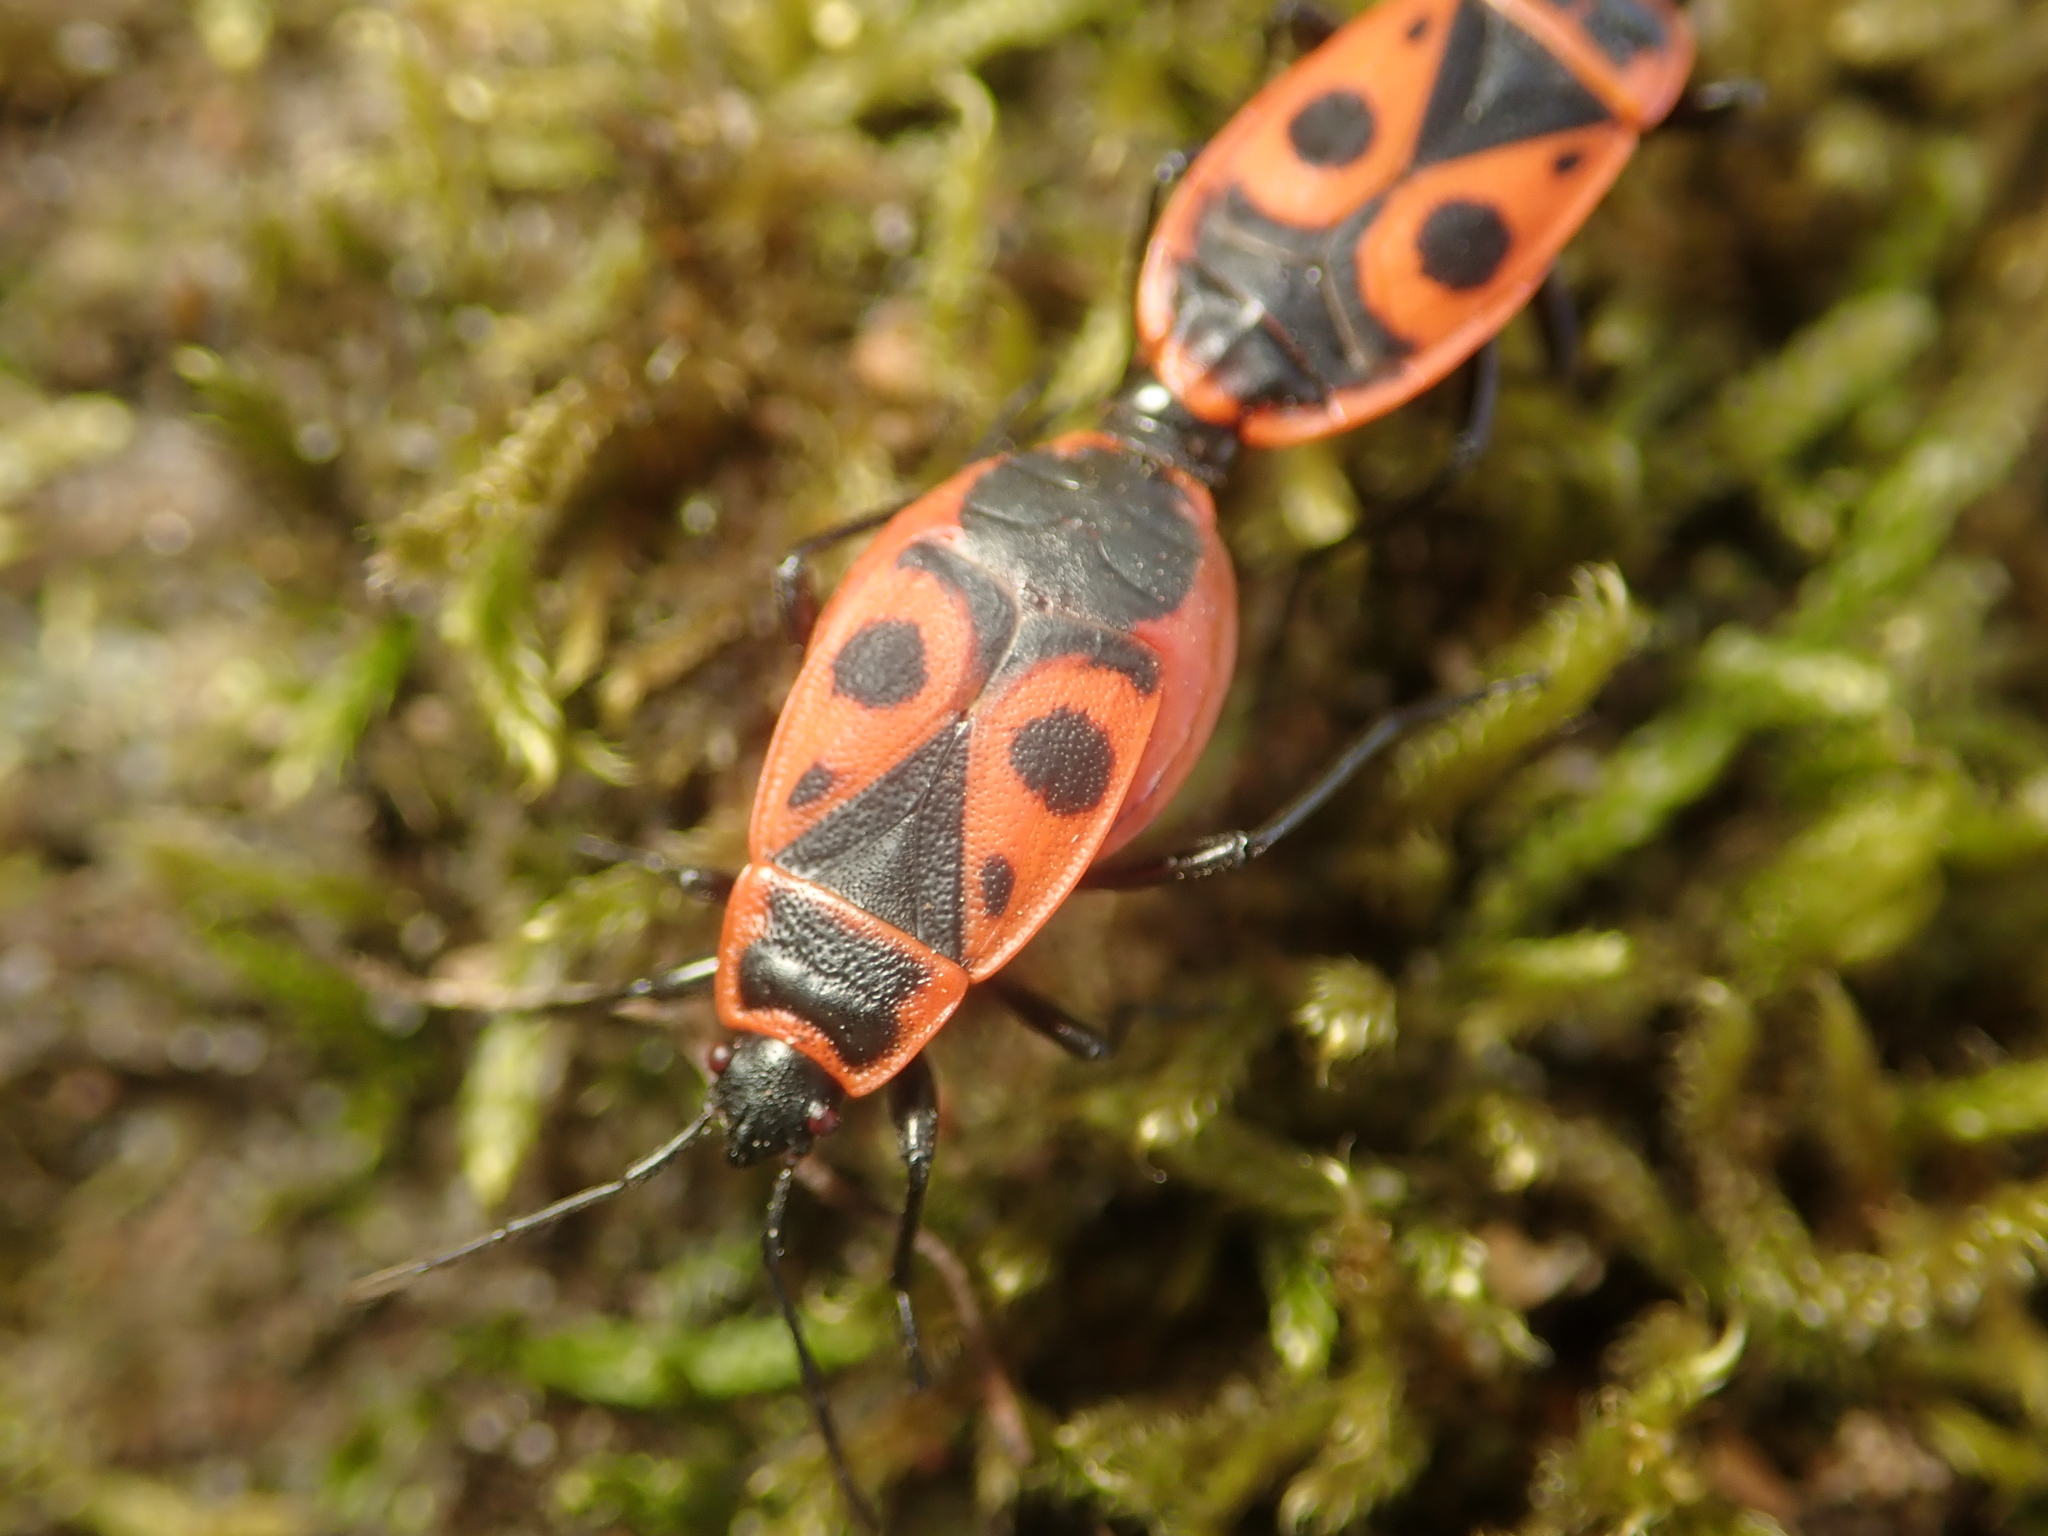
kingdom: Animalia
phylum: Arthropoda
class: Insecta
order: Hemiptera
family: Pyrrhocoridae
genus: Pyrrhocoris
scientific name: Pyrrhocoris apterus
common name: Firebug
